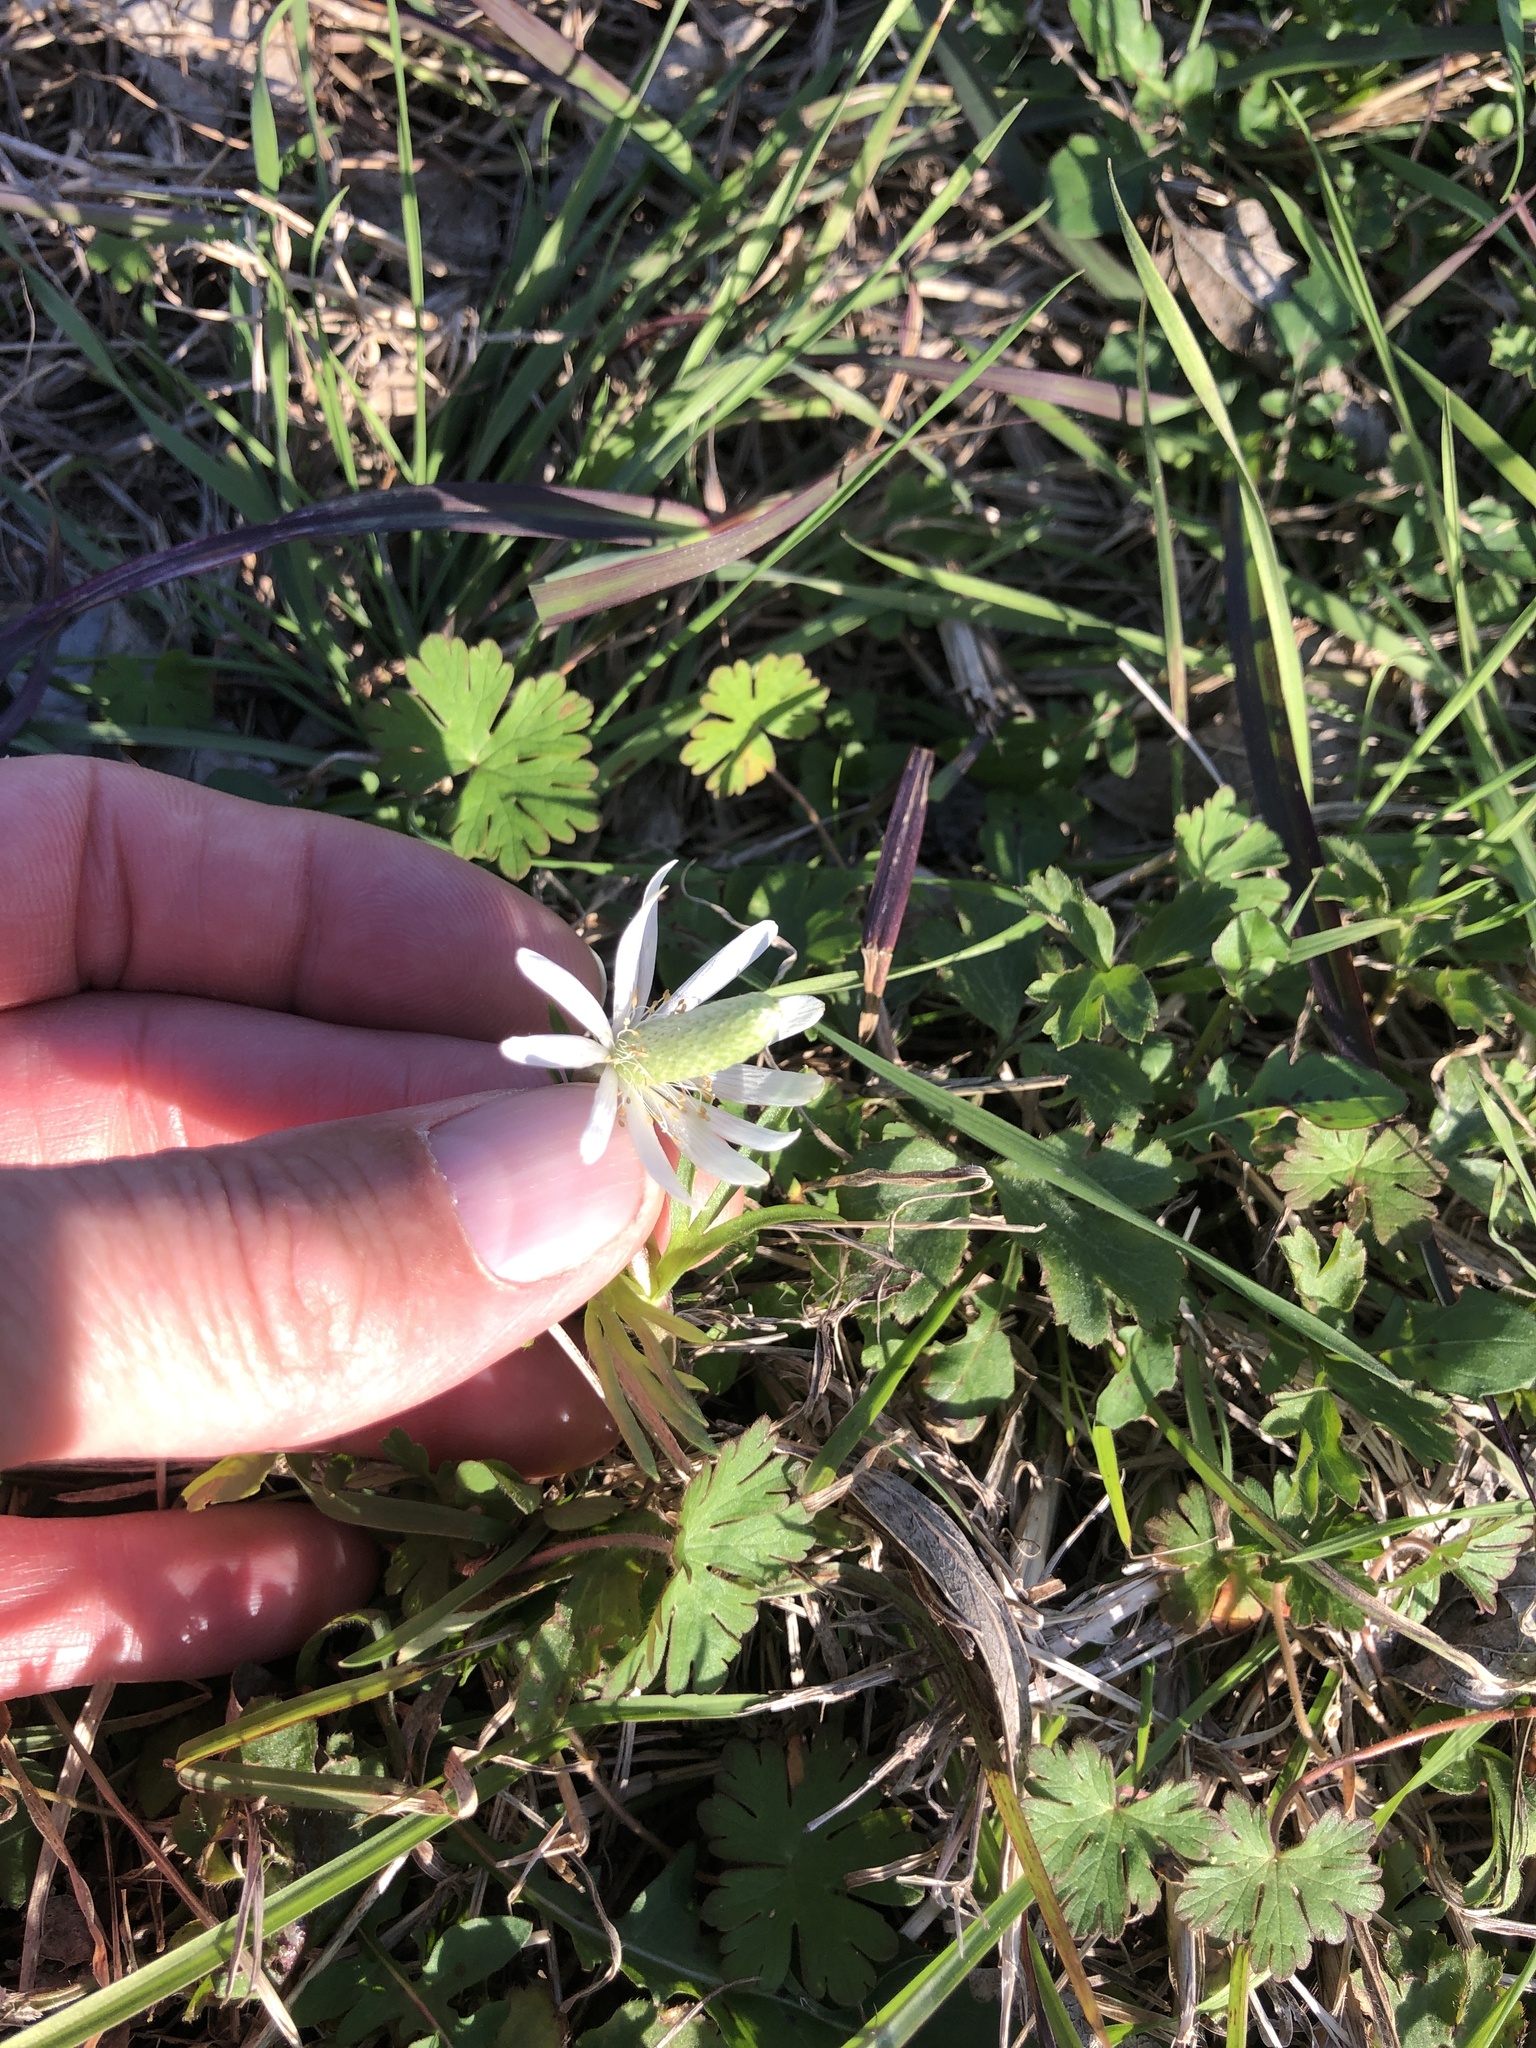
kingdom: Plantae
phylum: Tracheophyta
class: Magnoliopsida
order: Ranunculales
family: Ranunculaceae
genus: Anemone
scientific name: Anemone berlandieri
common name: Ten-petal anemone
